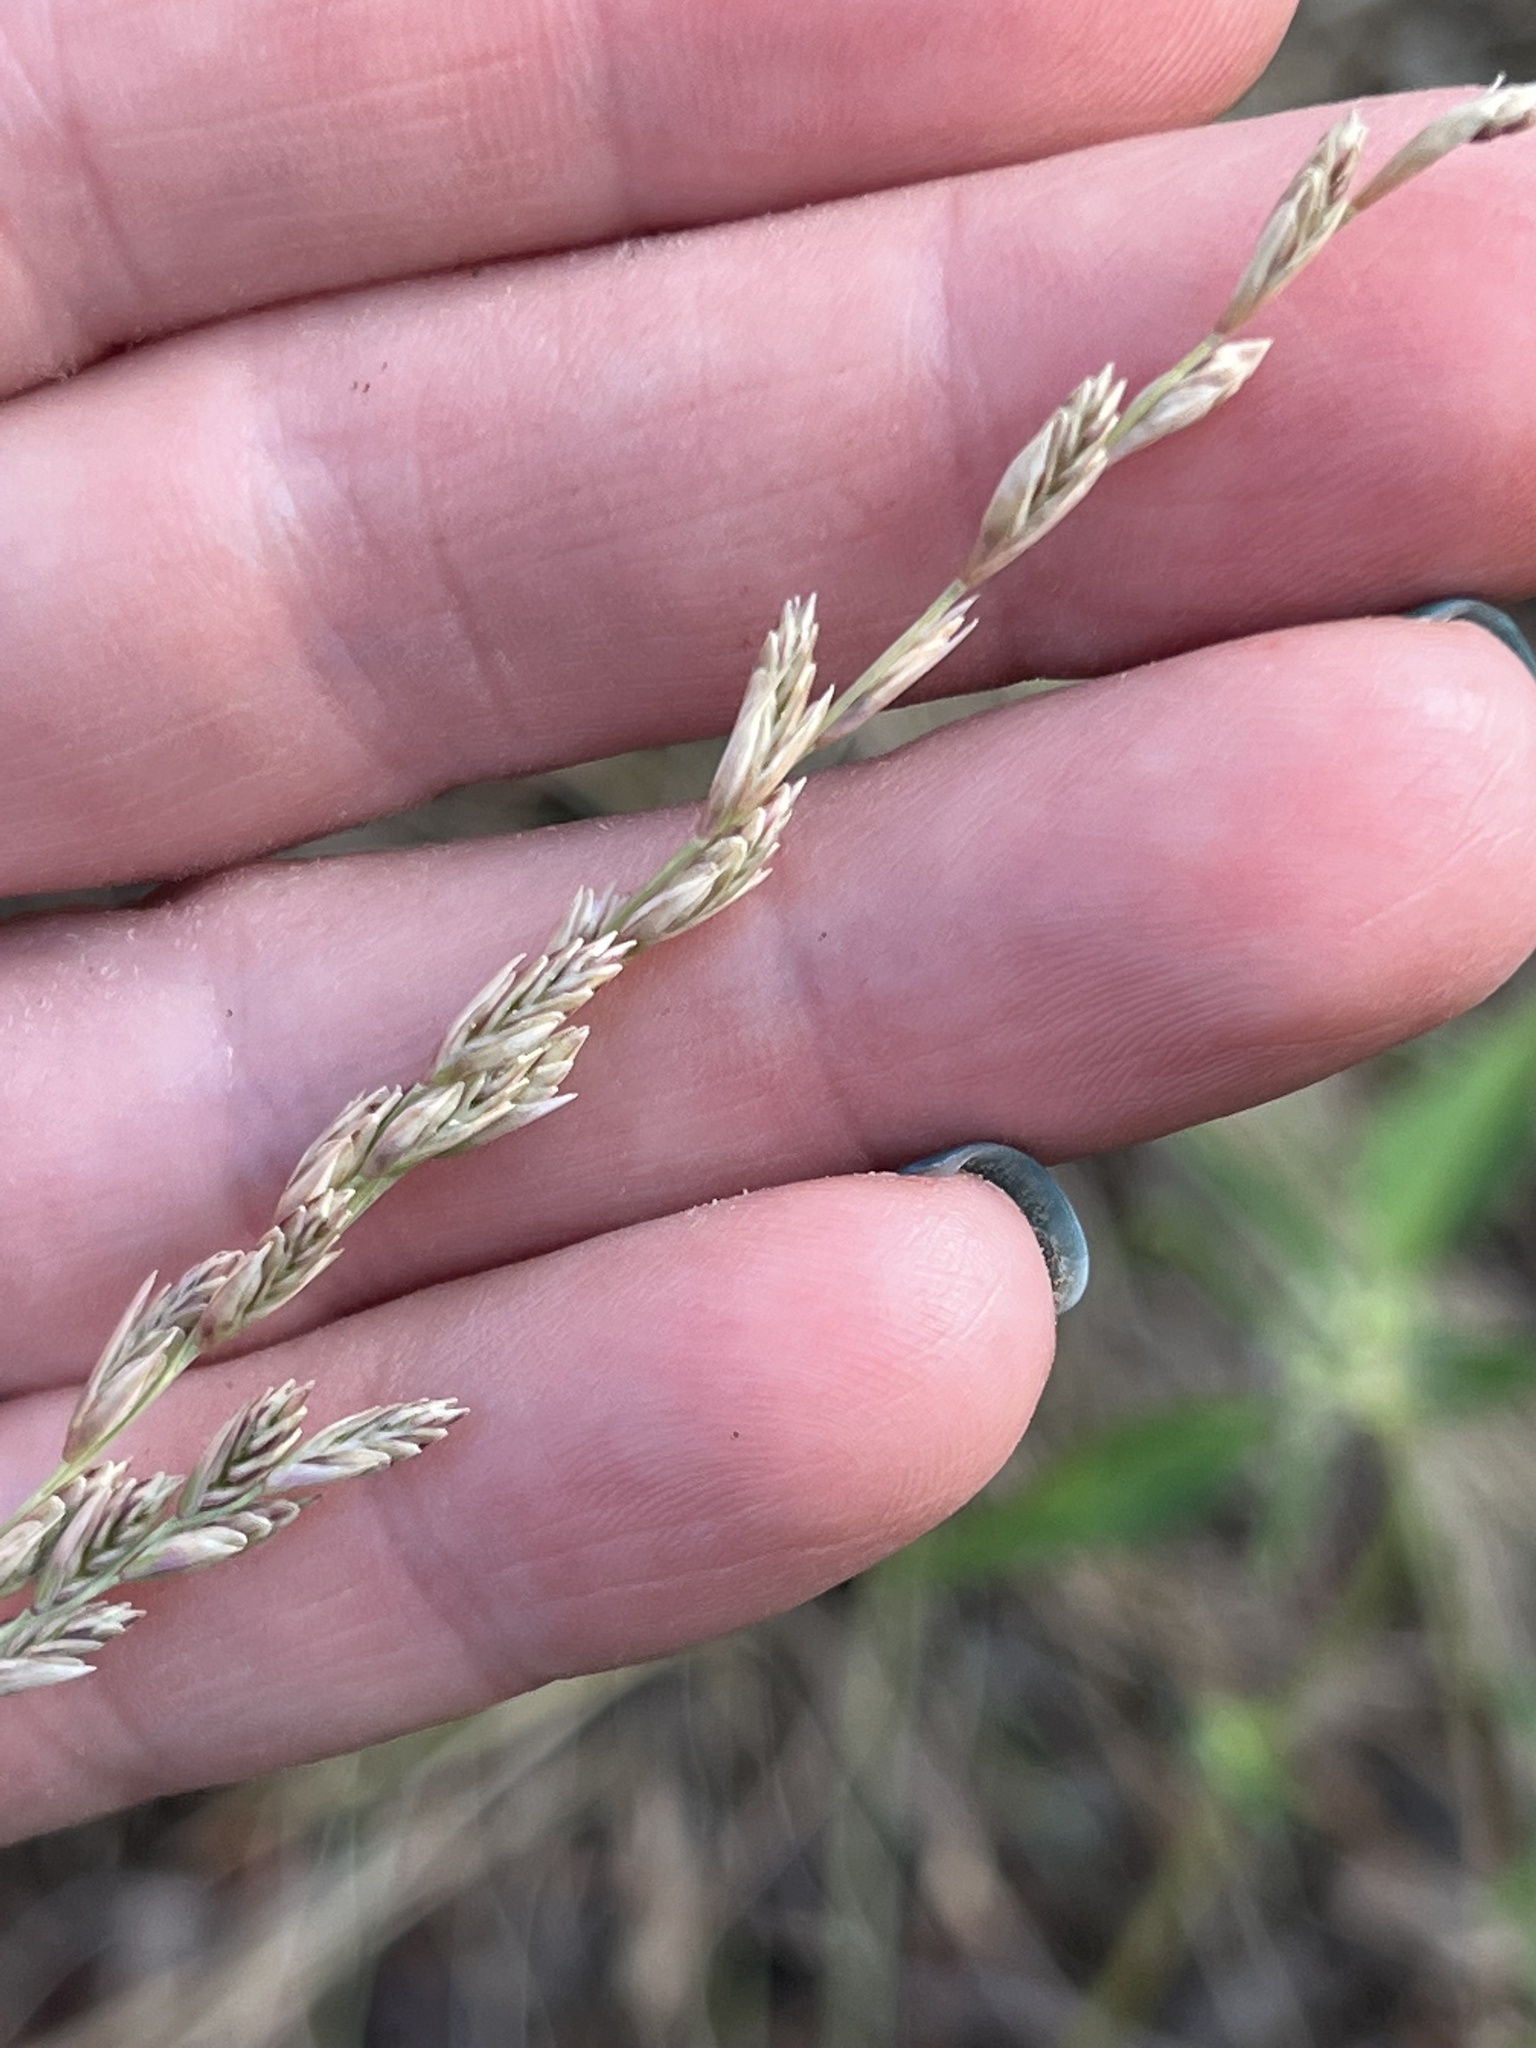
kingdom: Plantae
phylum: Tracheophyta
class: Liliopsida
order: Poales
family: Poaceae
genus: Tridentopsis
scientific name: Tridentopsis mutica
